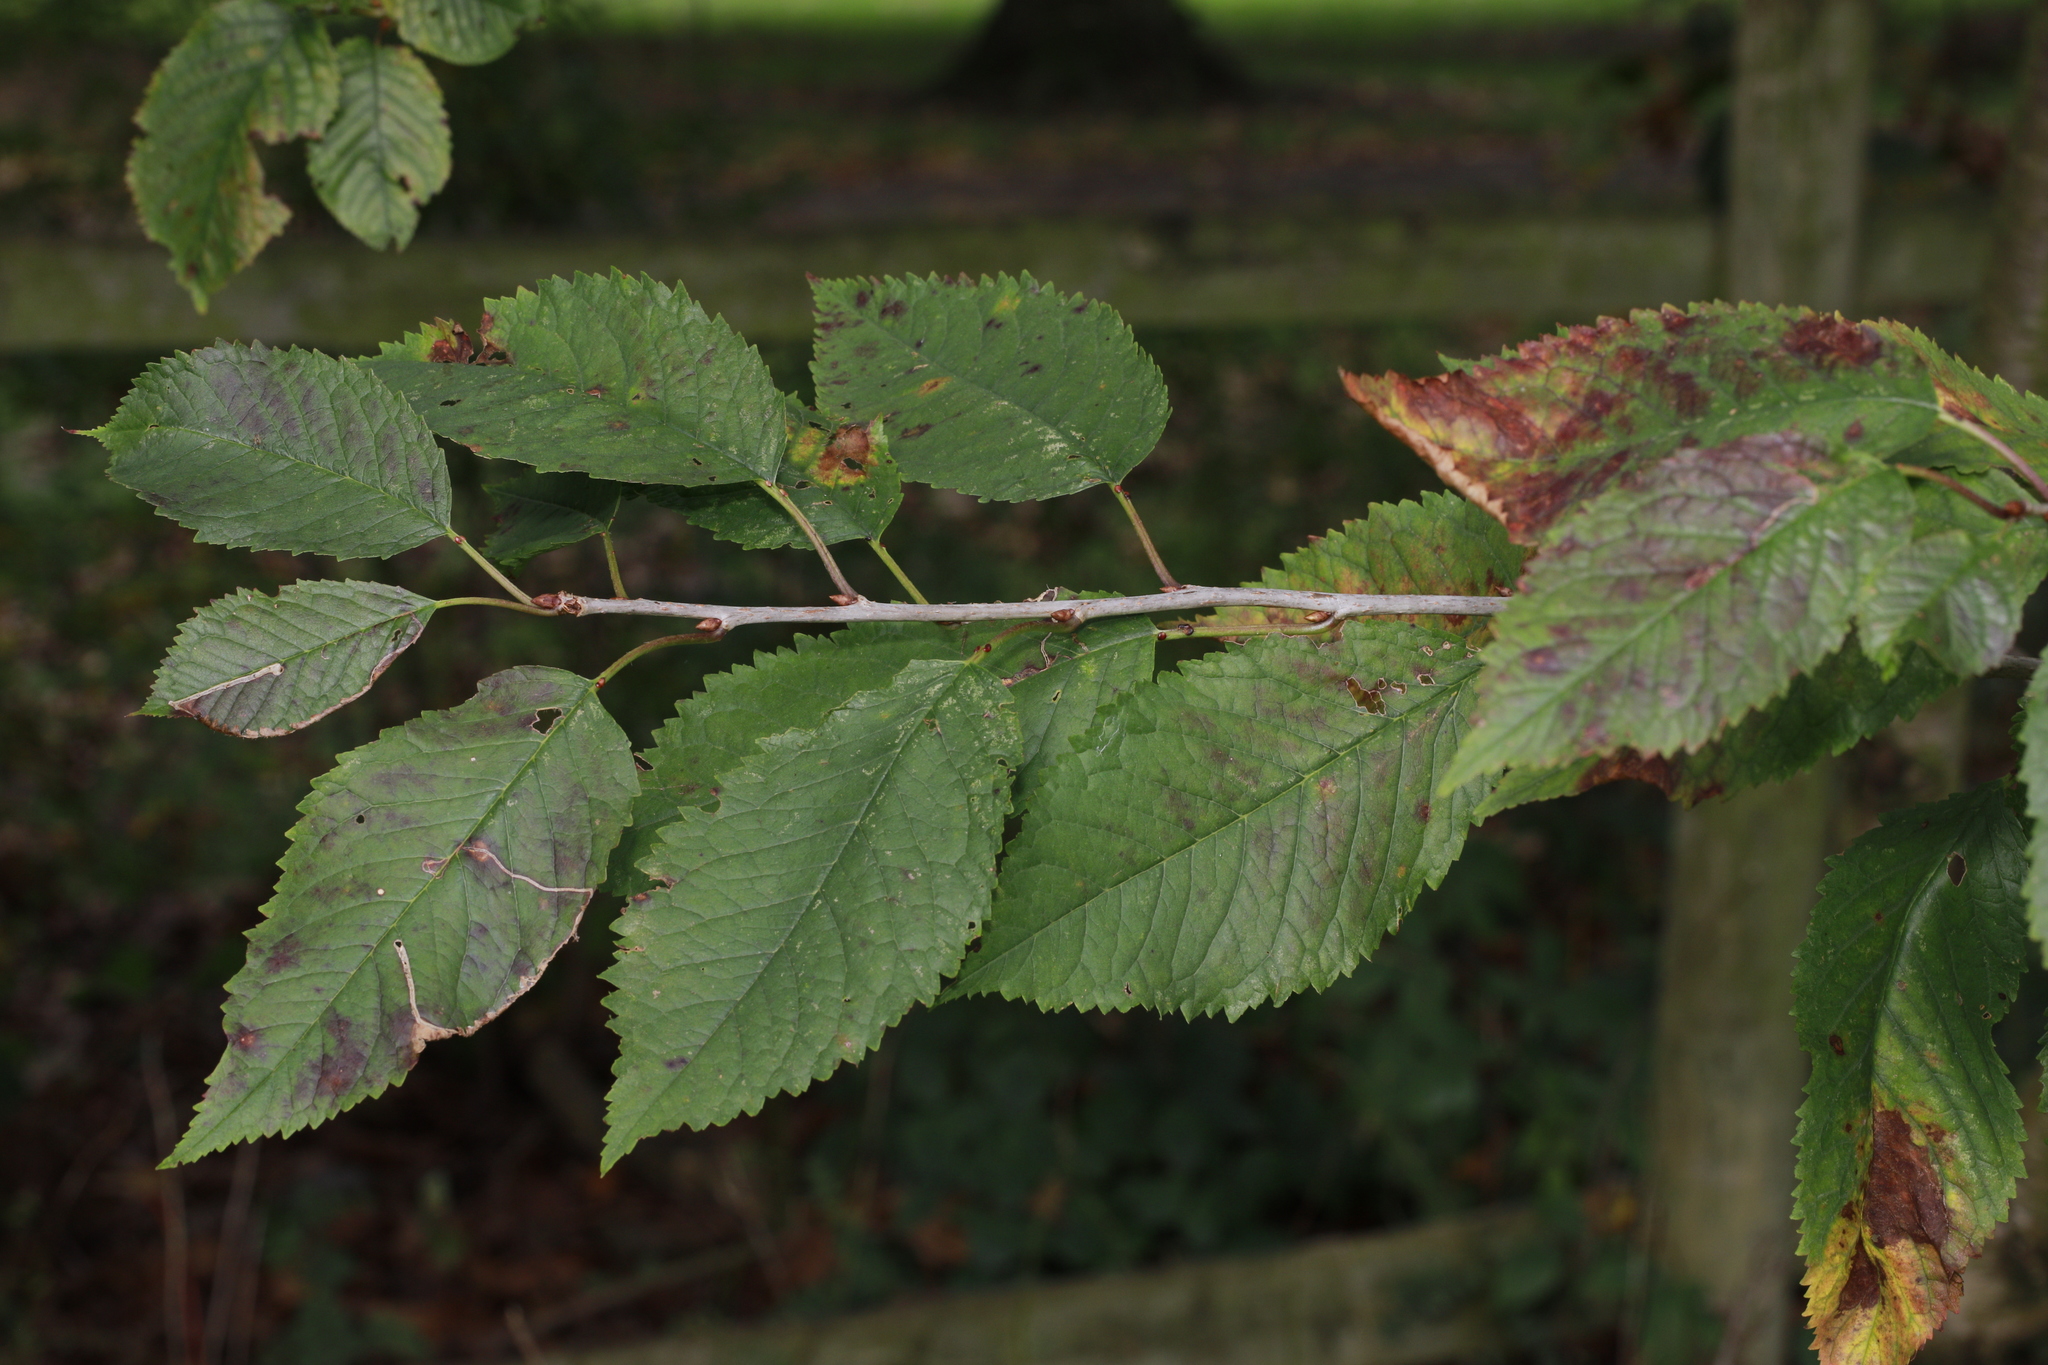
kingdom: Plantae
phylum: Tracheophyta
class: Magnoliopsida
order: Rosales
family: Rosaceae
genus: Prunus
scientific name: Prunus avium
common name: Sweet cherry
